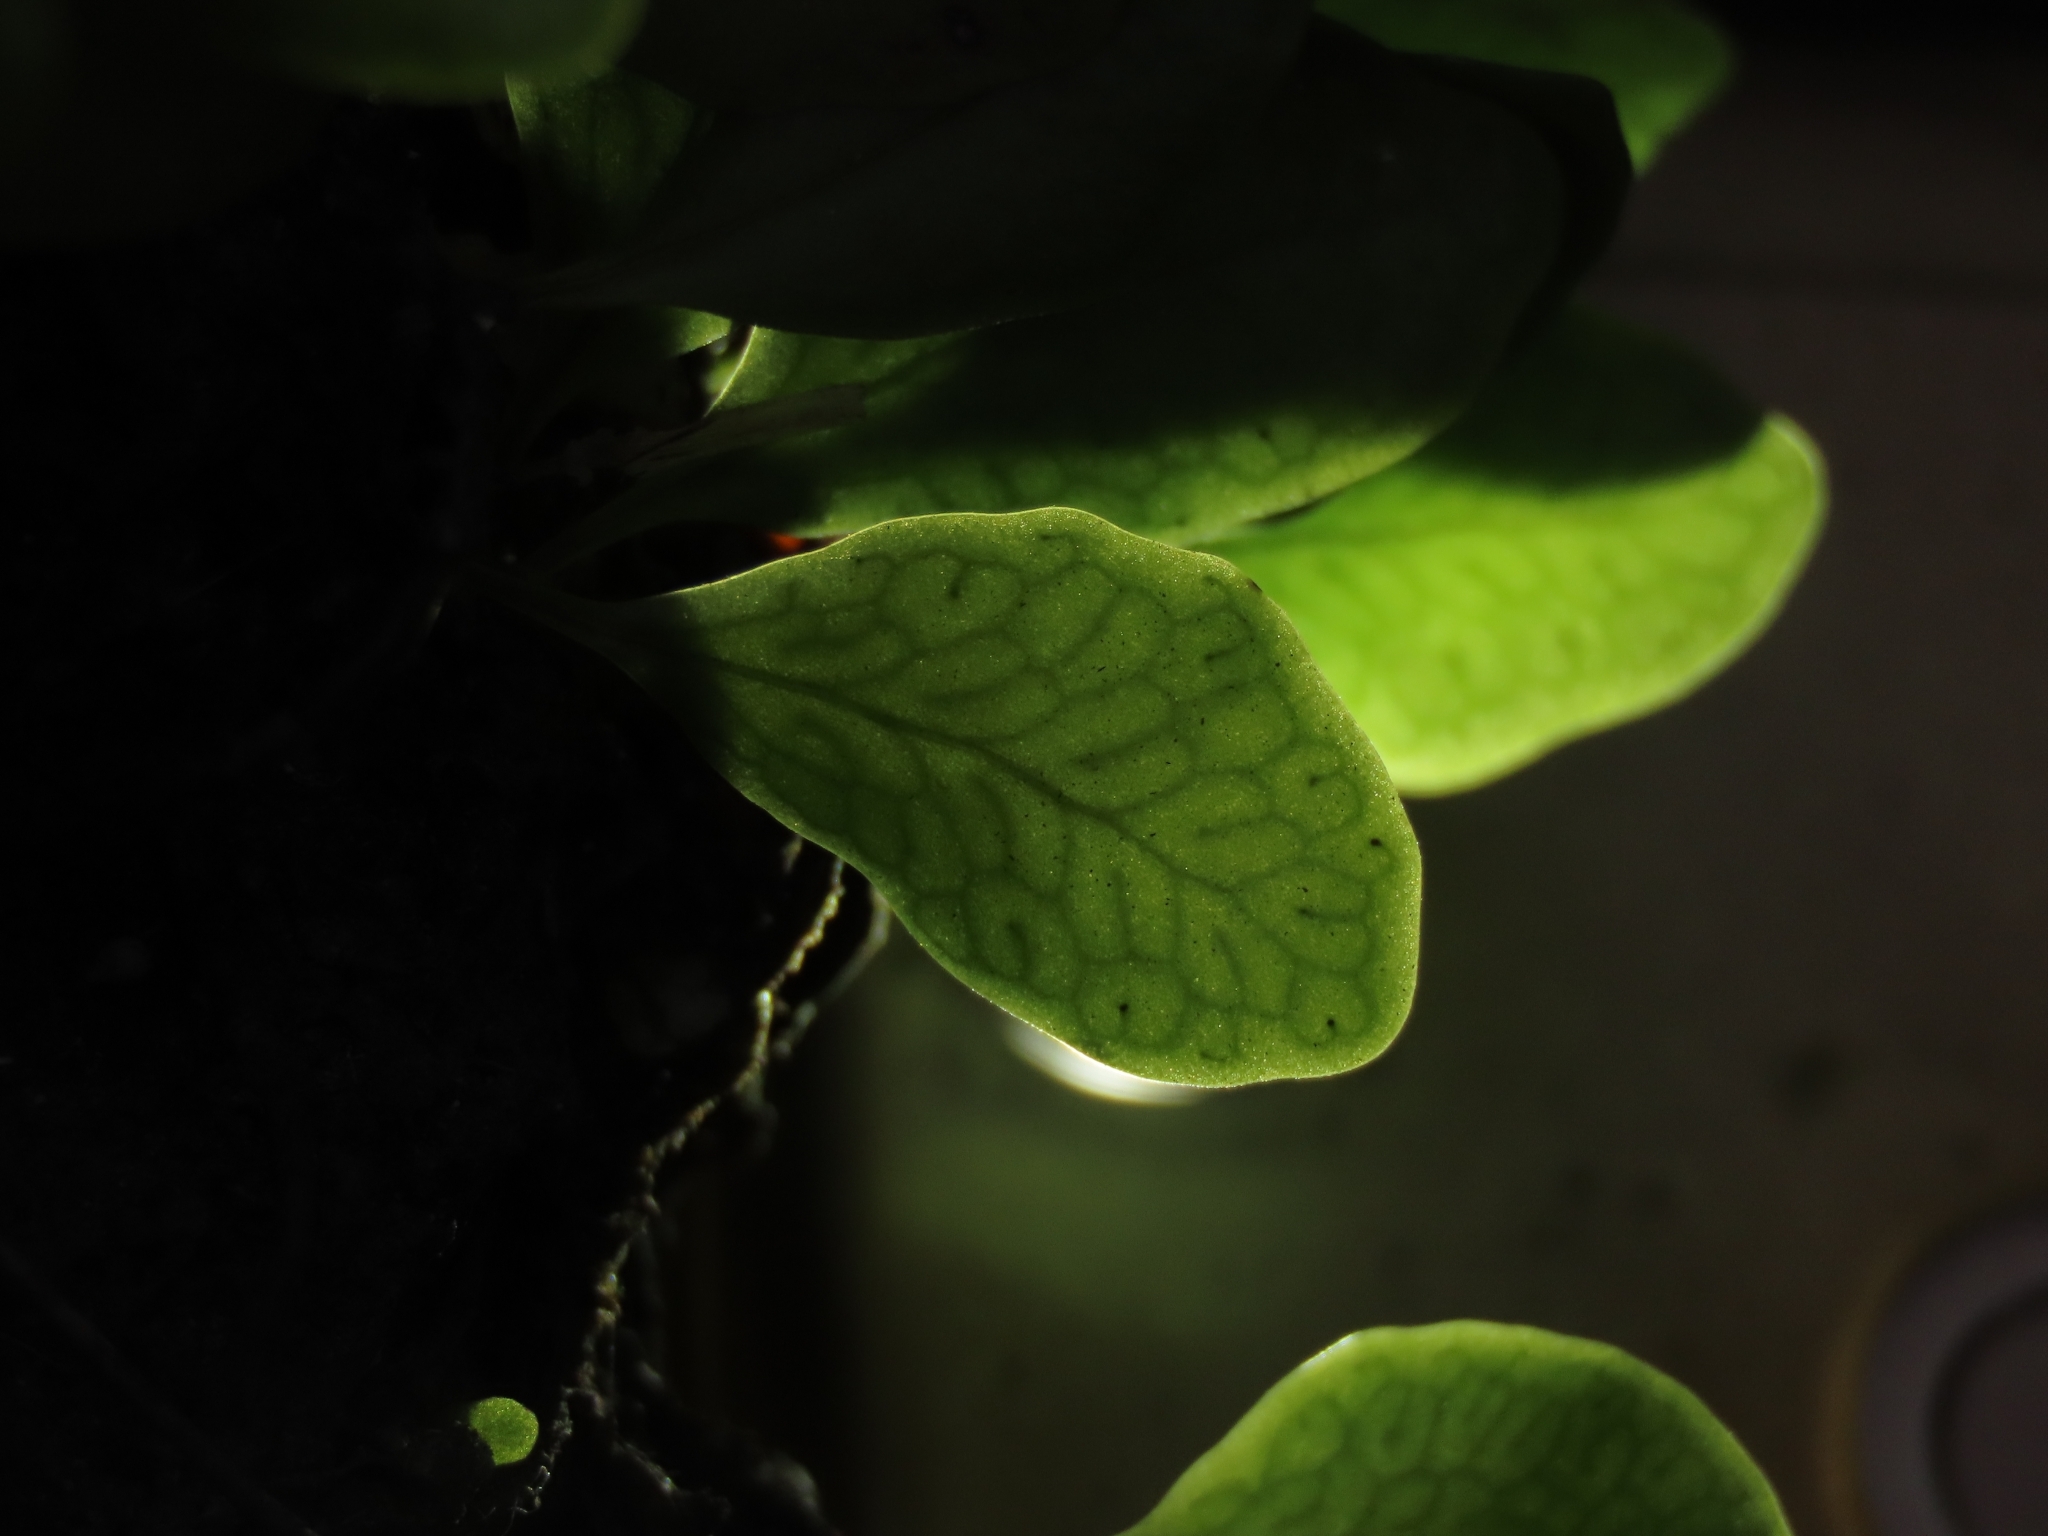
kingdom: Plantae
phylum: Tracheophyta
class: Polypodiopsida
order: Polypodiales
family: Polypodiaceae
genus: Lepisorus
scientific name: Lepisorus microphyllus
